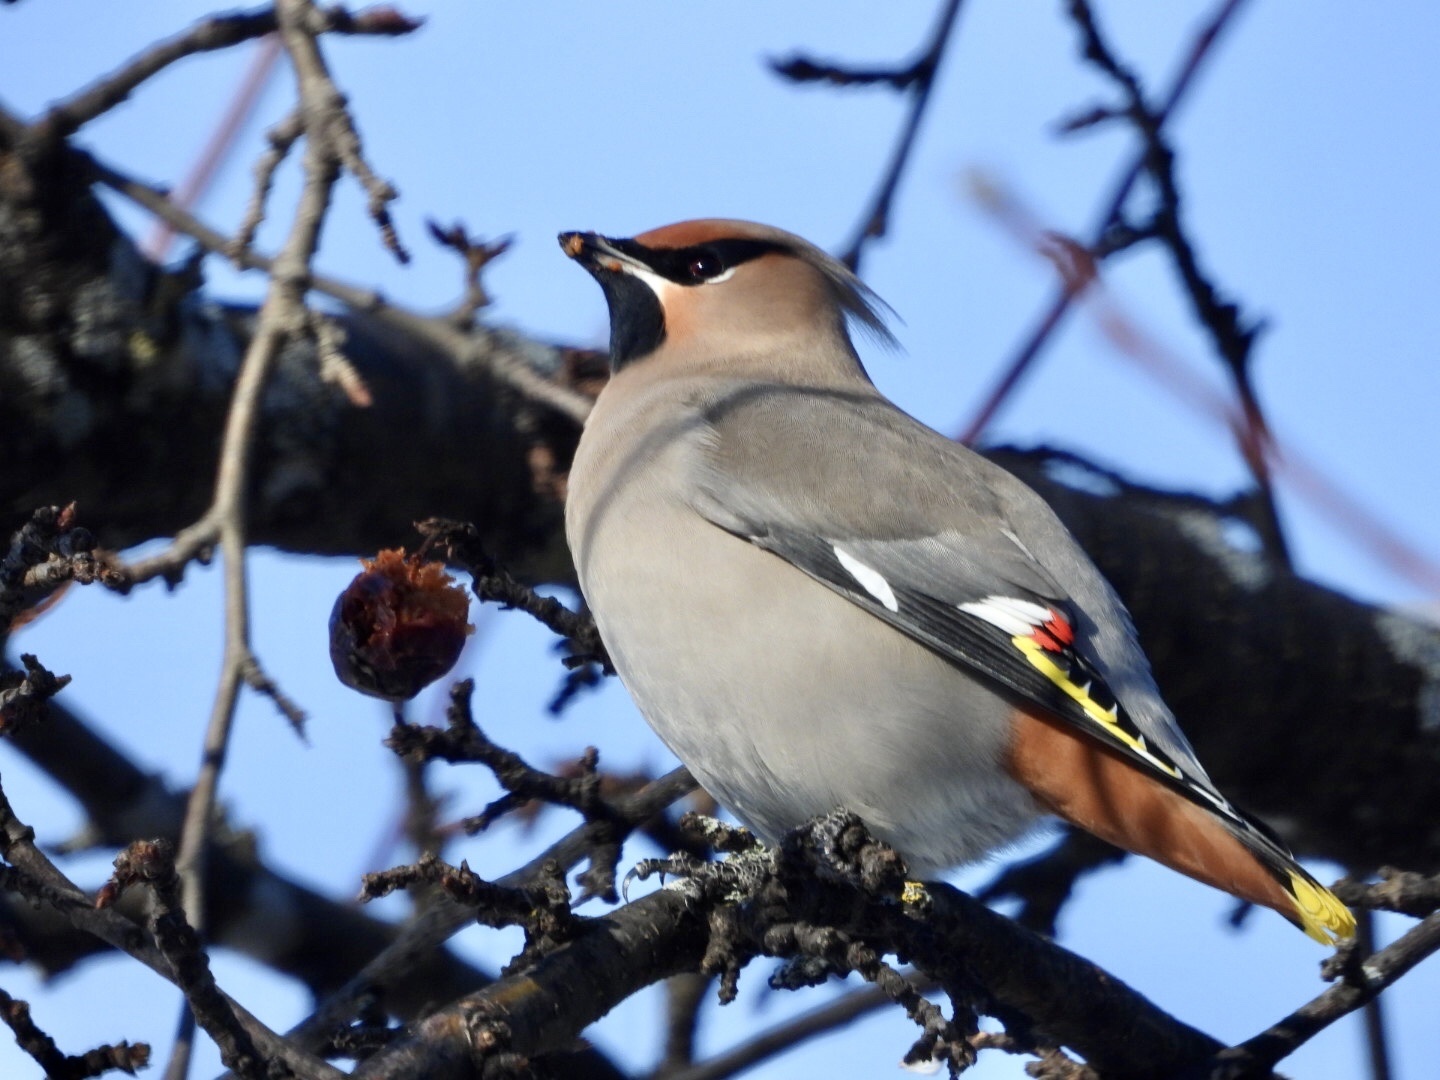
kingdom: Animalia
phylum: Chordata
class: Aves
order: Passeriformes
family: Bombycillidae
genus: Bombycilla
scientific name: Bombycilla garrulus
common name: Bohemian waxwing
